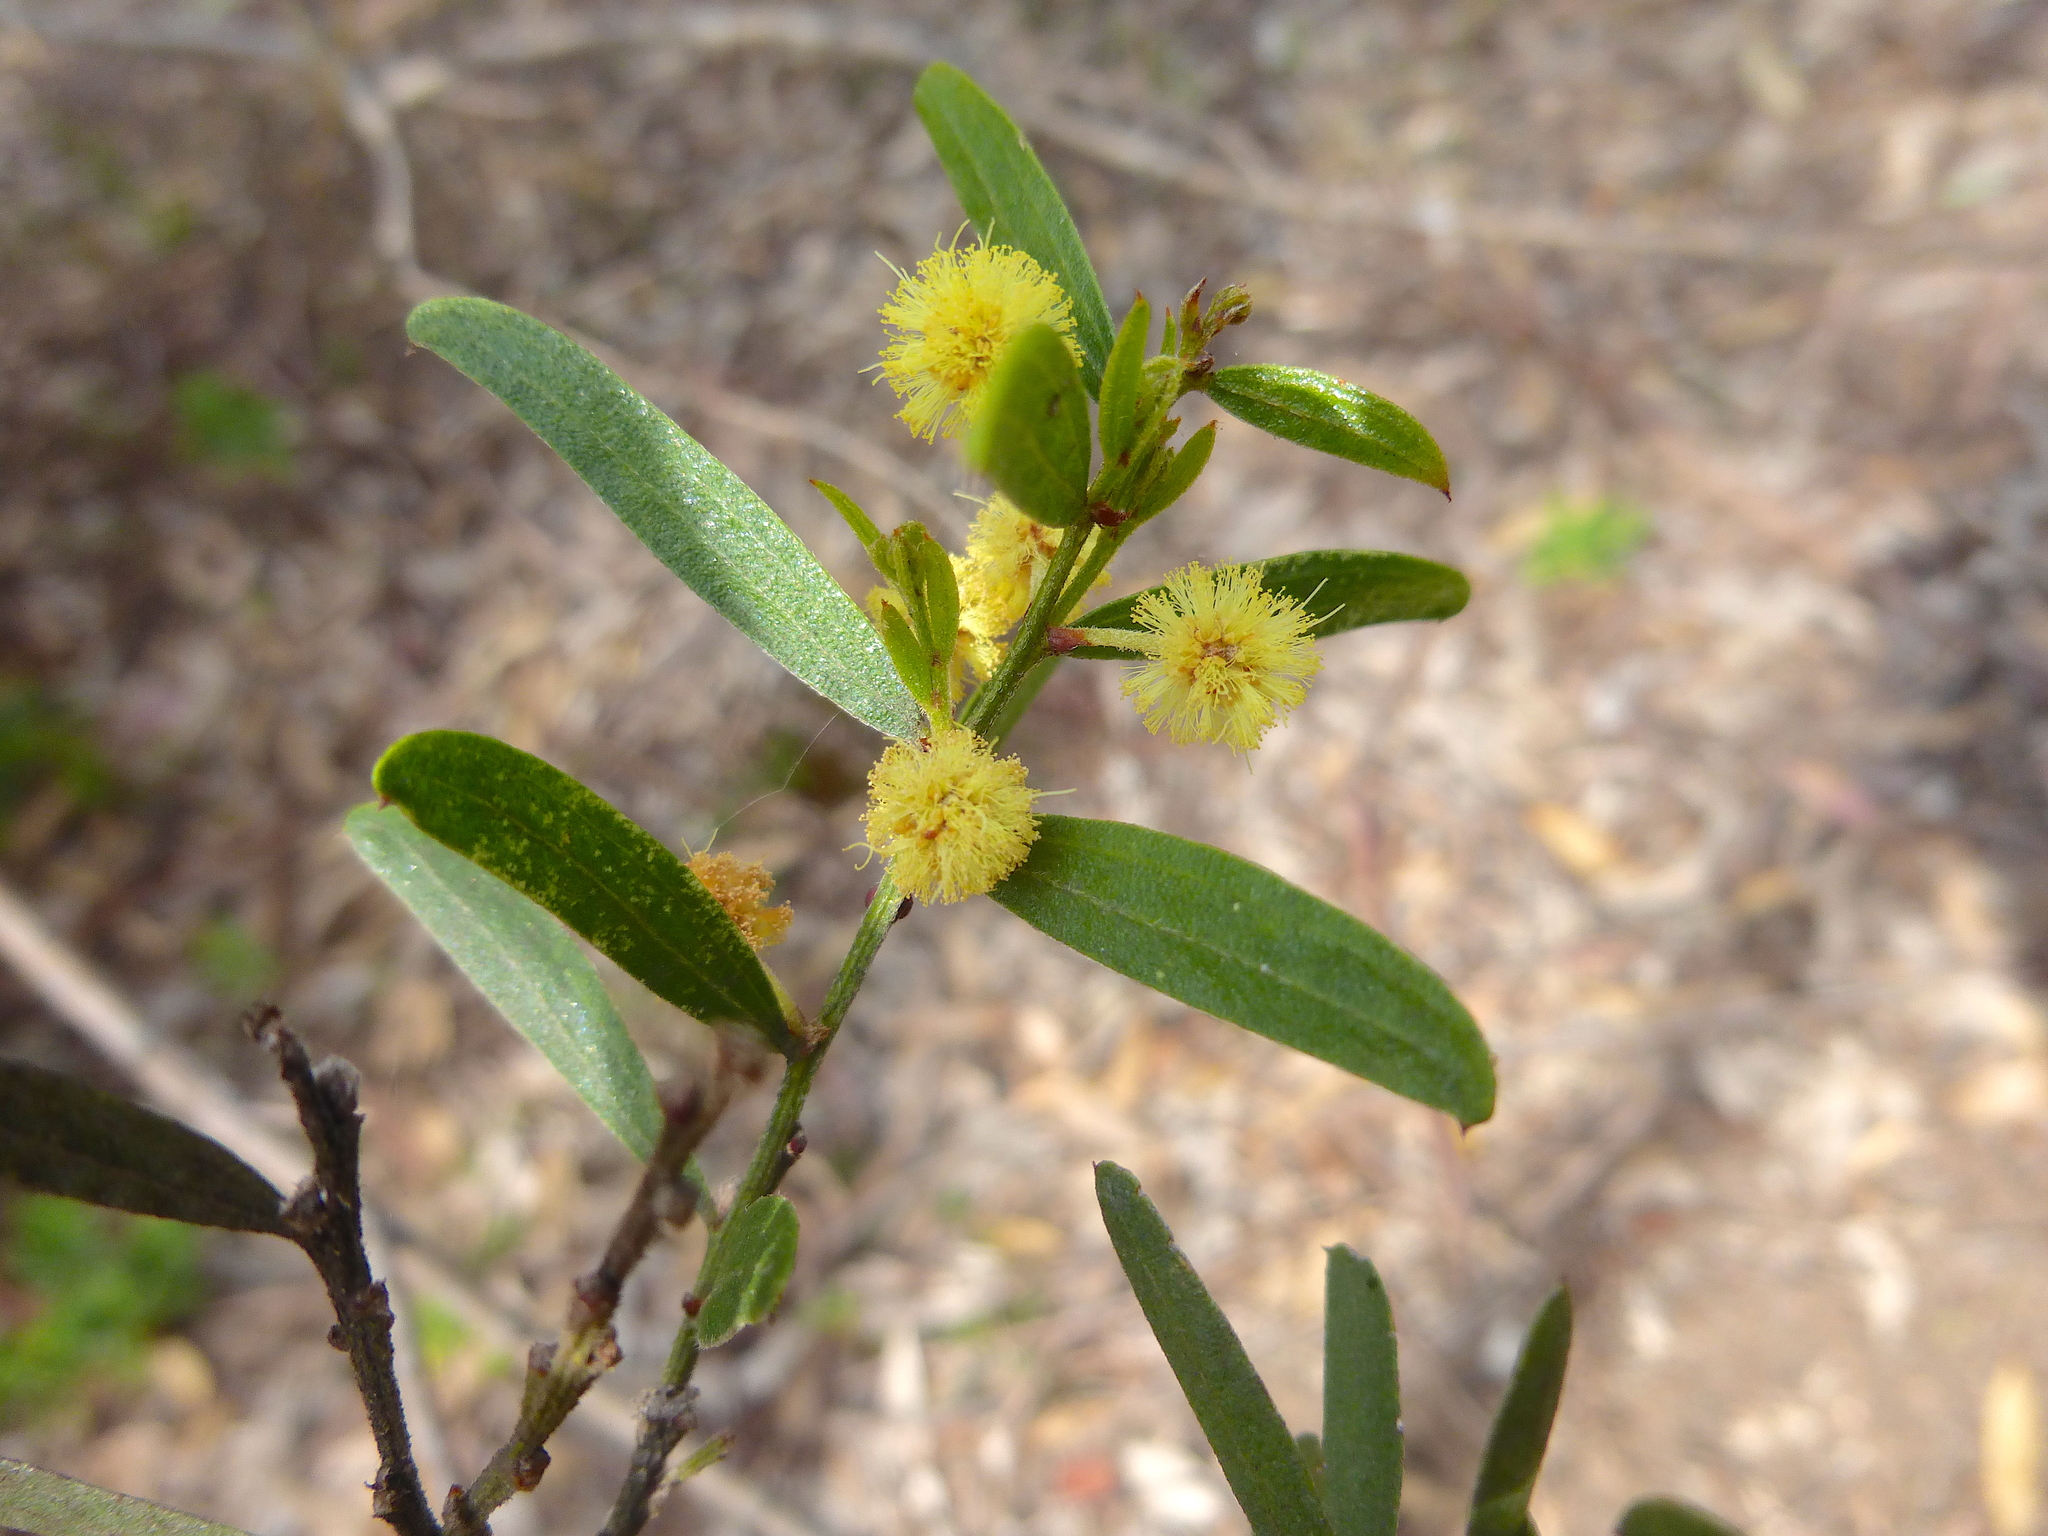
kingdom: Plantae
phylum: Tracheophyta
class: Magnoliopsida
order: Fabales
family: Fabaceae
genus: Acacia
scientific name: Acacia rostriformis
